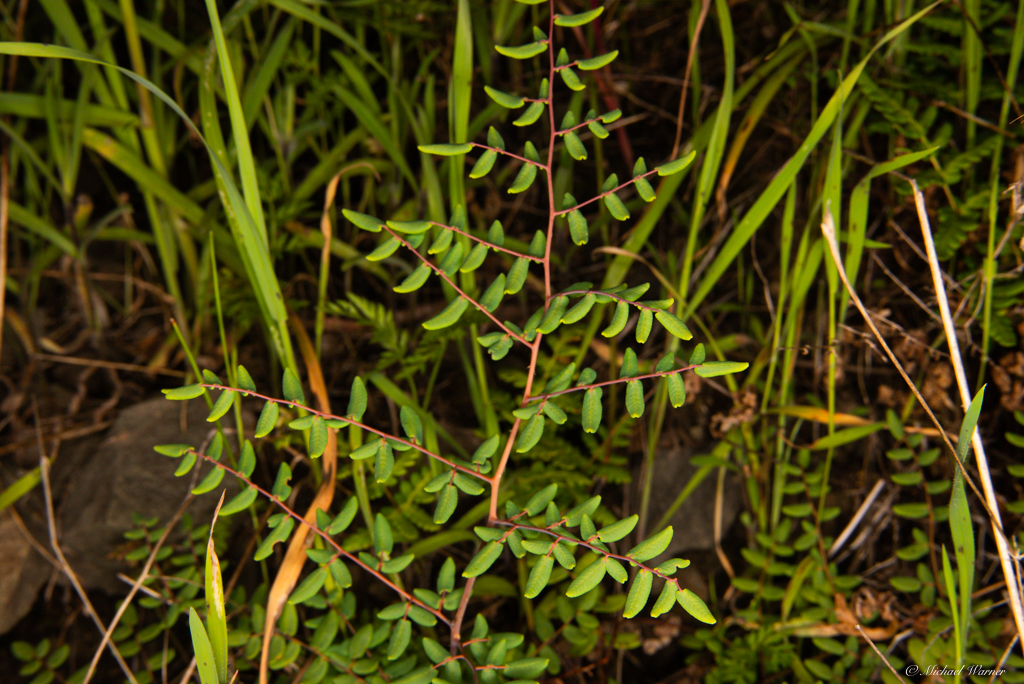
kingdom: Plantae
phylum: Tracheophyta
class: Polypodiopsida
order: Polypodiales
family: Pteridaceae
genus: Pellaea
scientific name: Pellaea andromedifolia
